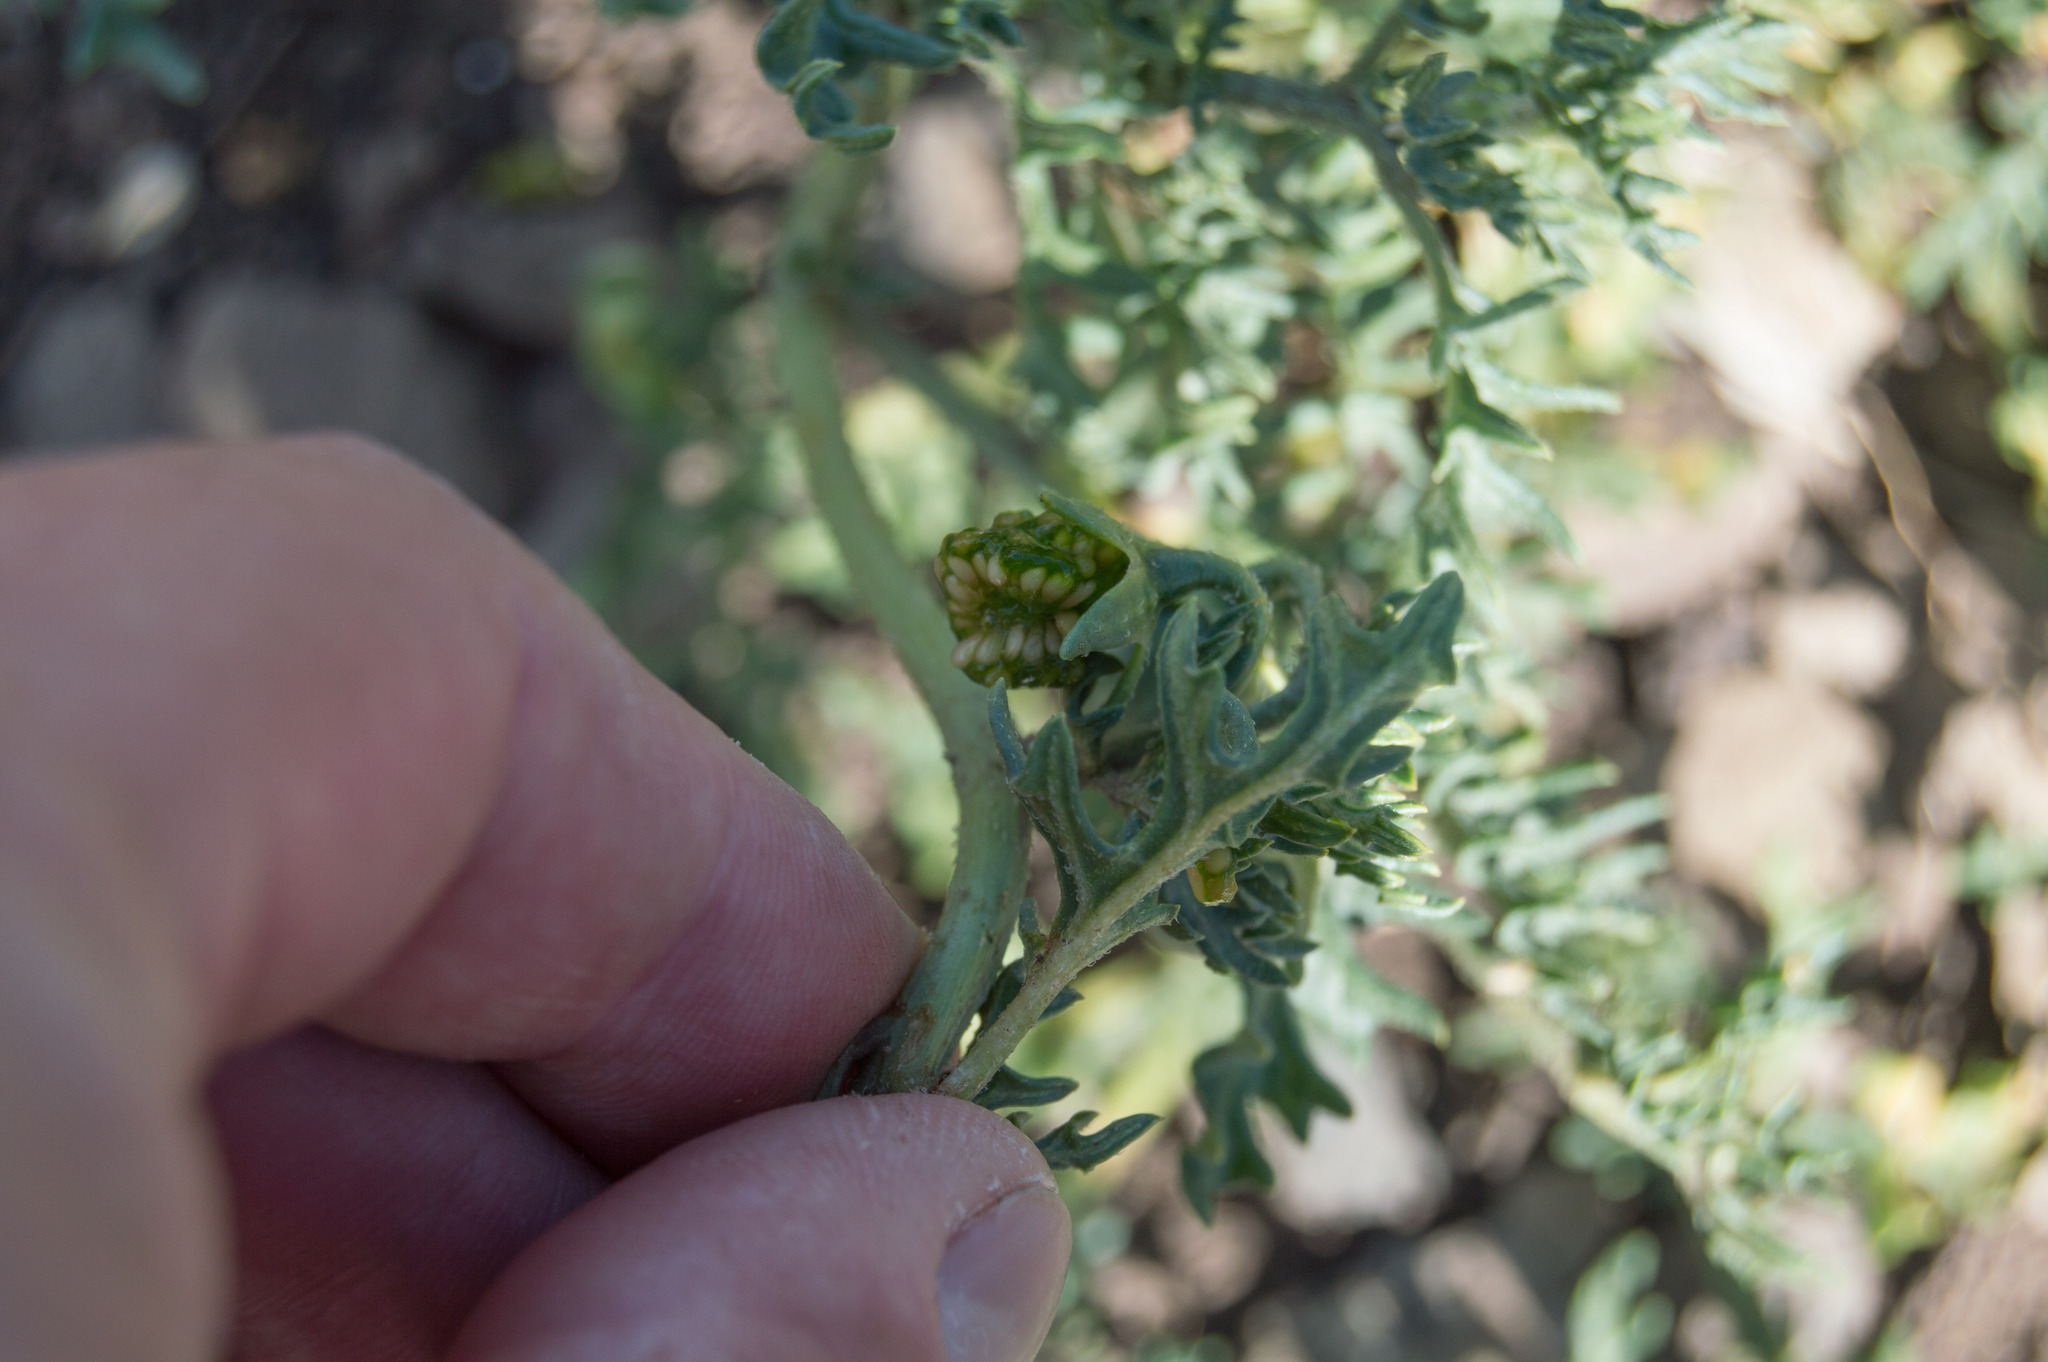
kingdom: Plantae
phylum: Tracheophyta
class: Magnoliopsida
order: Solanales
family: Solanaceae
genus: Solanum
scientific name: Solanum triflorum
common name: Small nightshade
